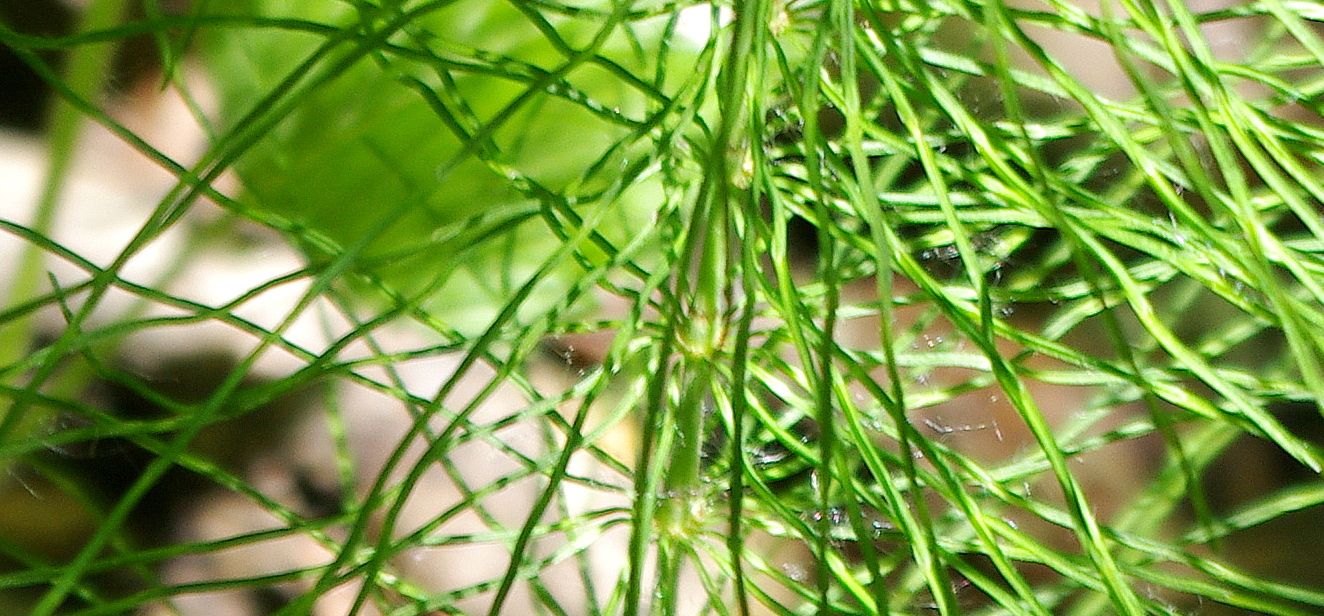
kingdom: Plantae
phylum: Tracheophyta
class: Polypodiopsida
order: Equisetales
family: Equisetaceae
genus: Equisetum
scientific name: Equisetum pratense
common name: Meadow horsetail
